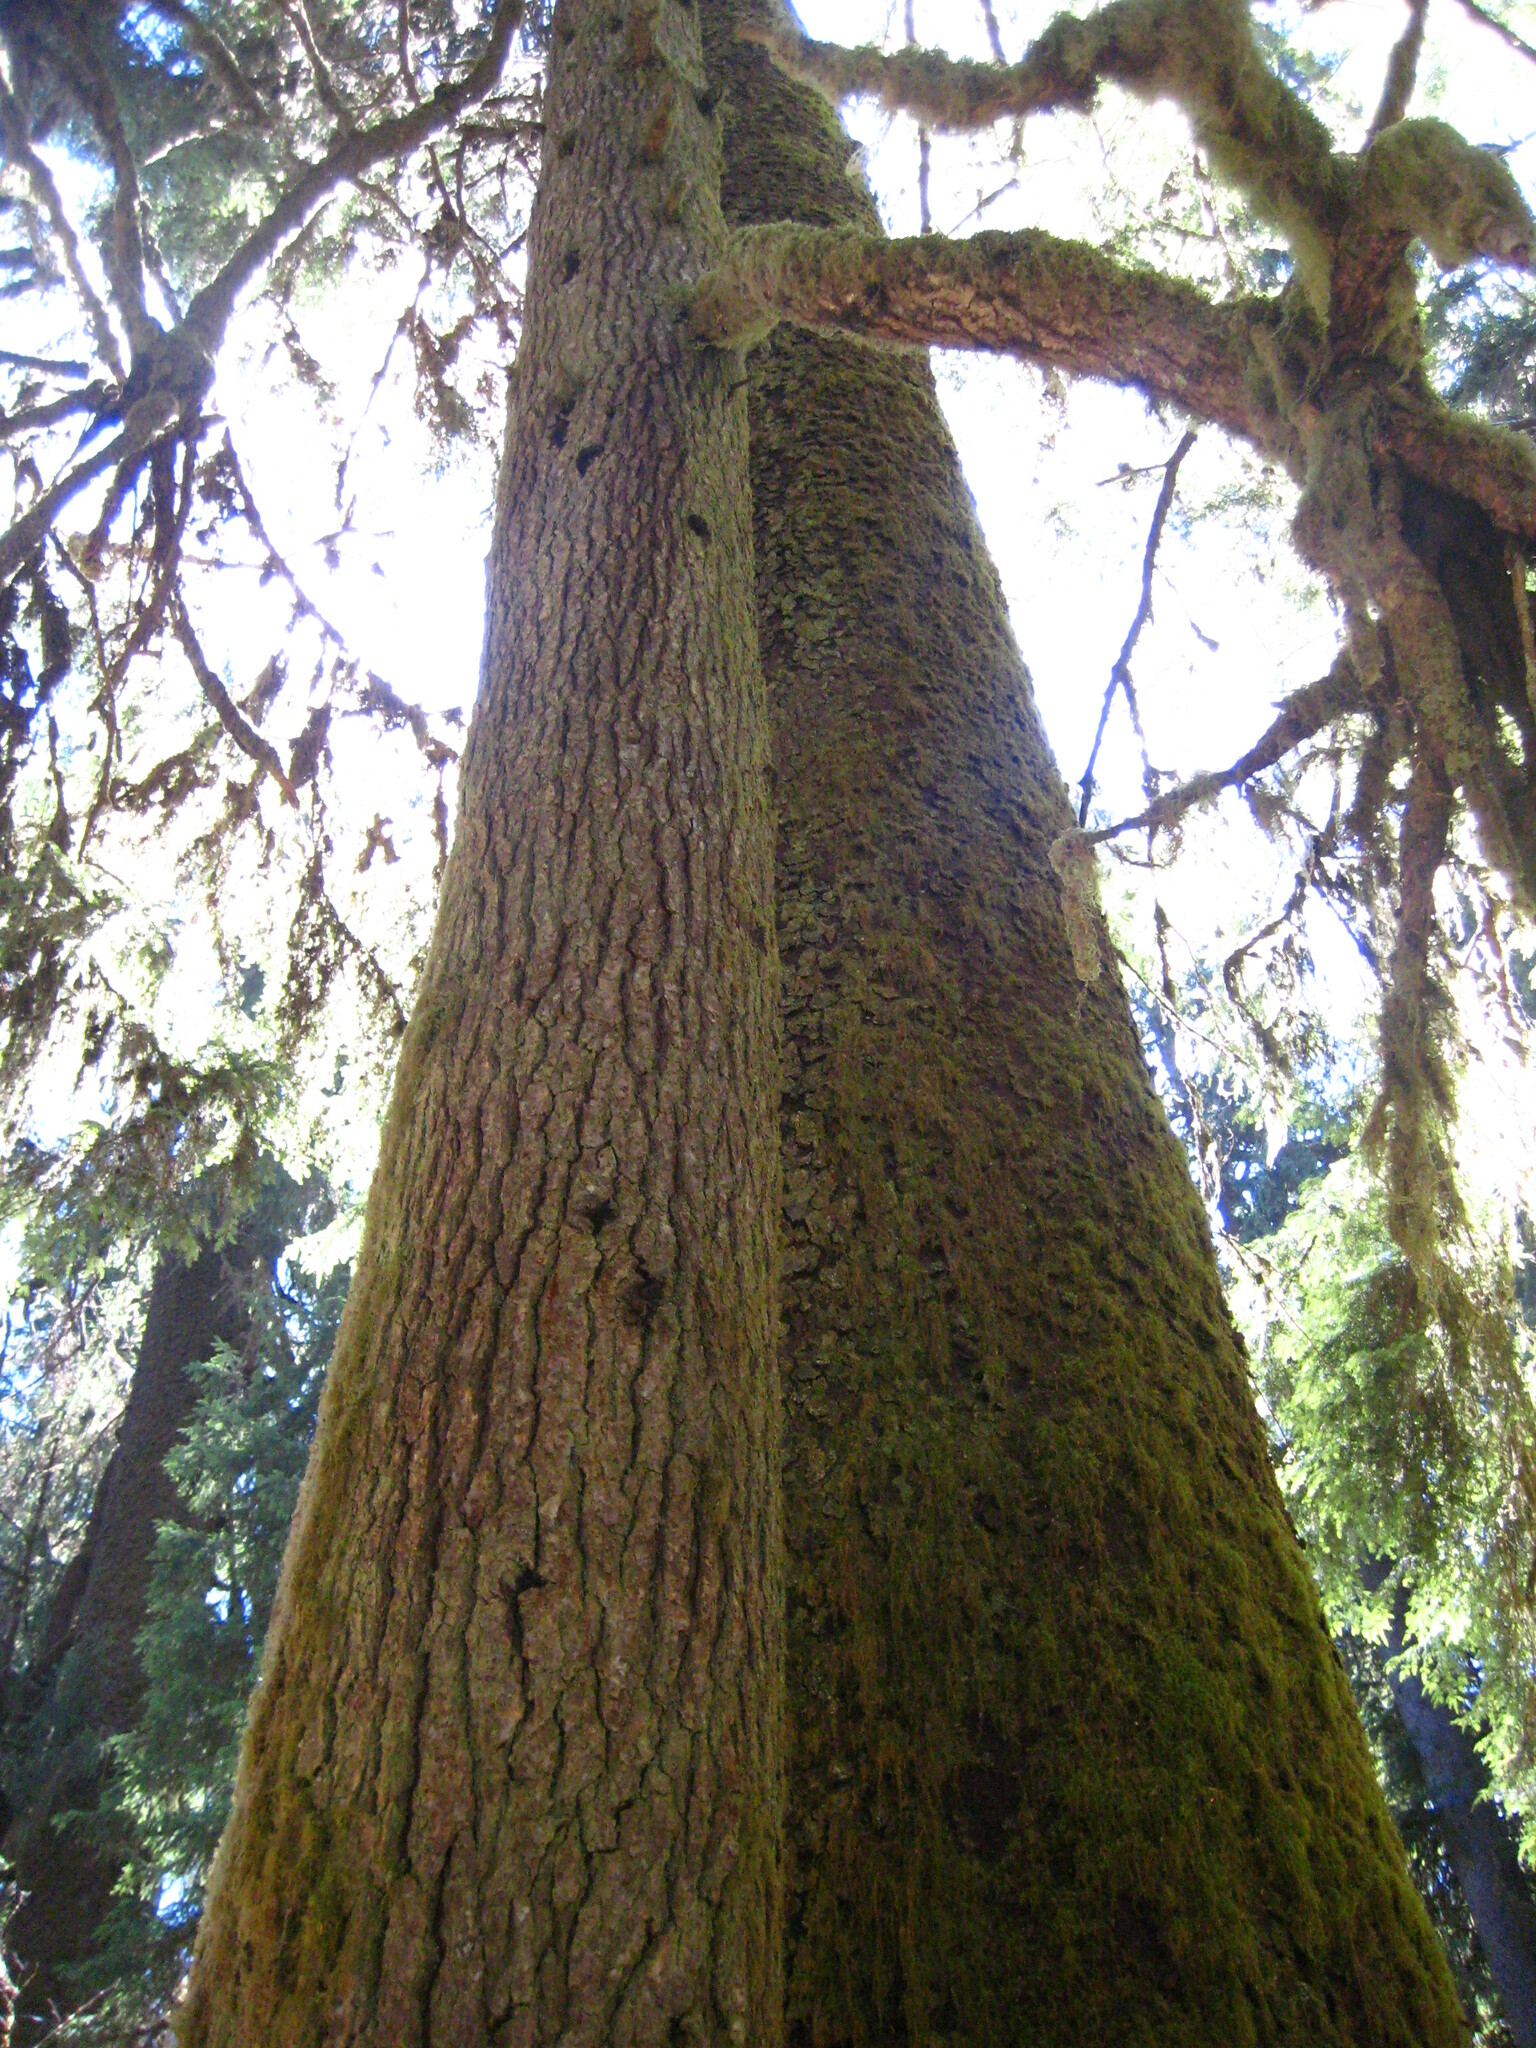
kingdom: Plantae
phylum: Tracheophyta
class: Pinopsida
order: Pinales
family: Pinaceae
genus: Pseudotsuga
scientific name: Pseudotsuga menziesii
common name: Douglas fir
